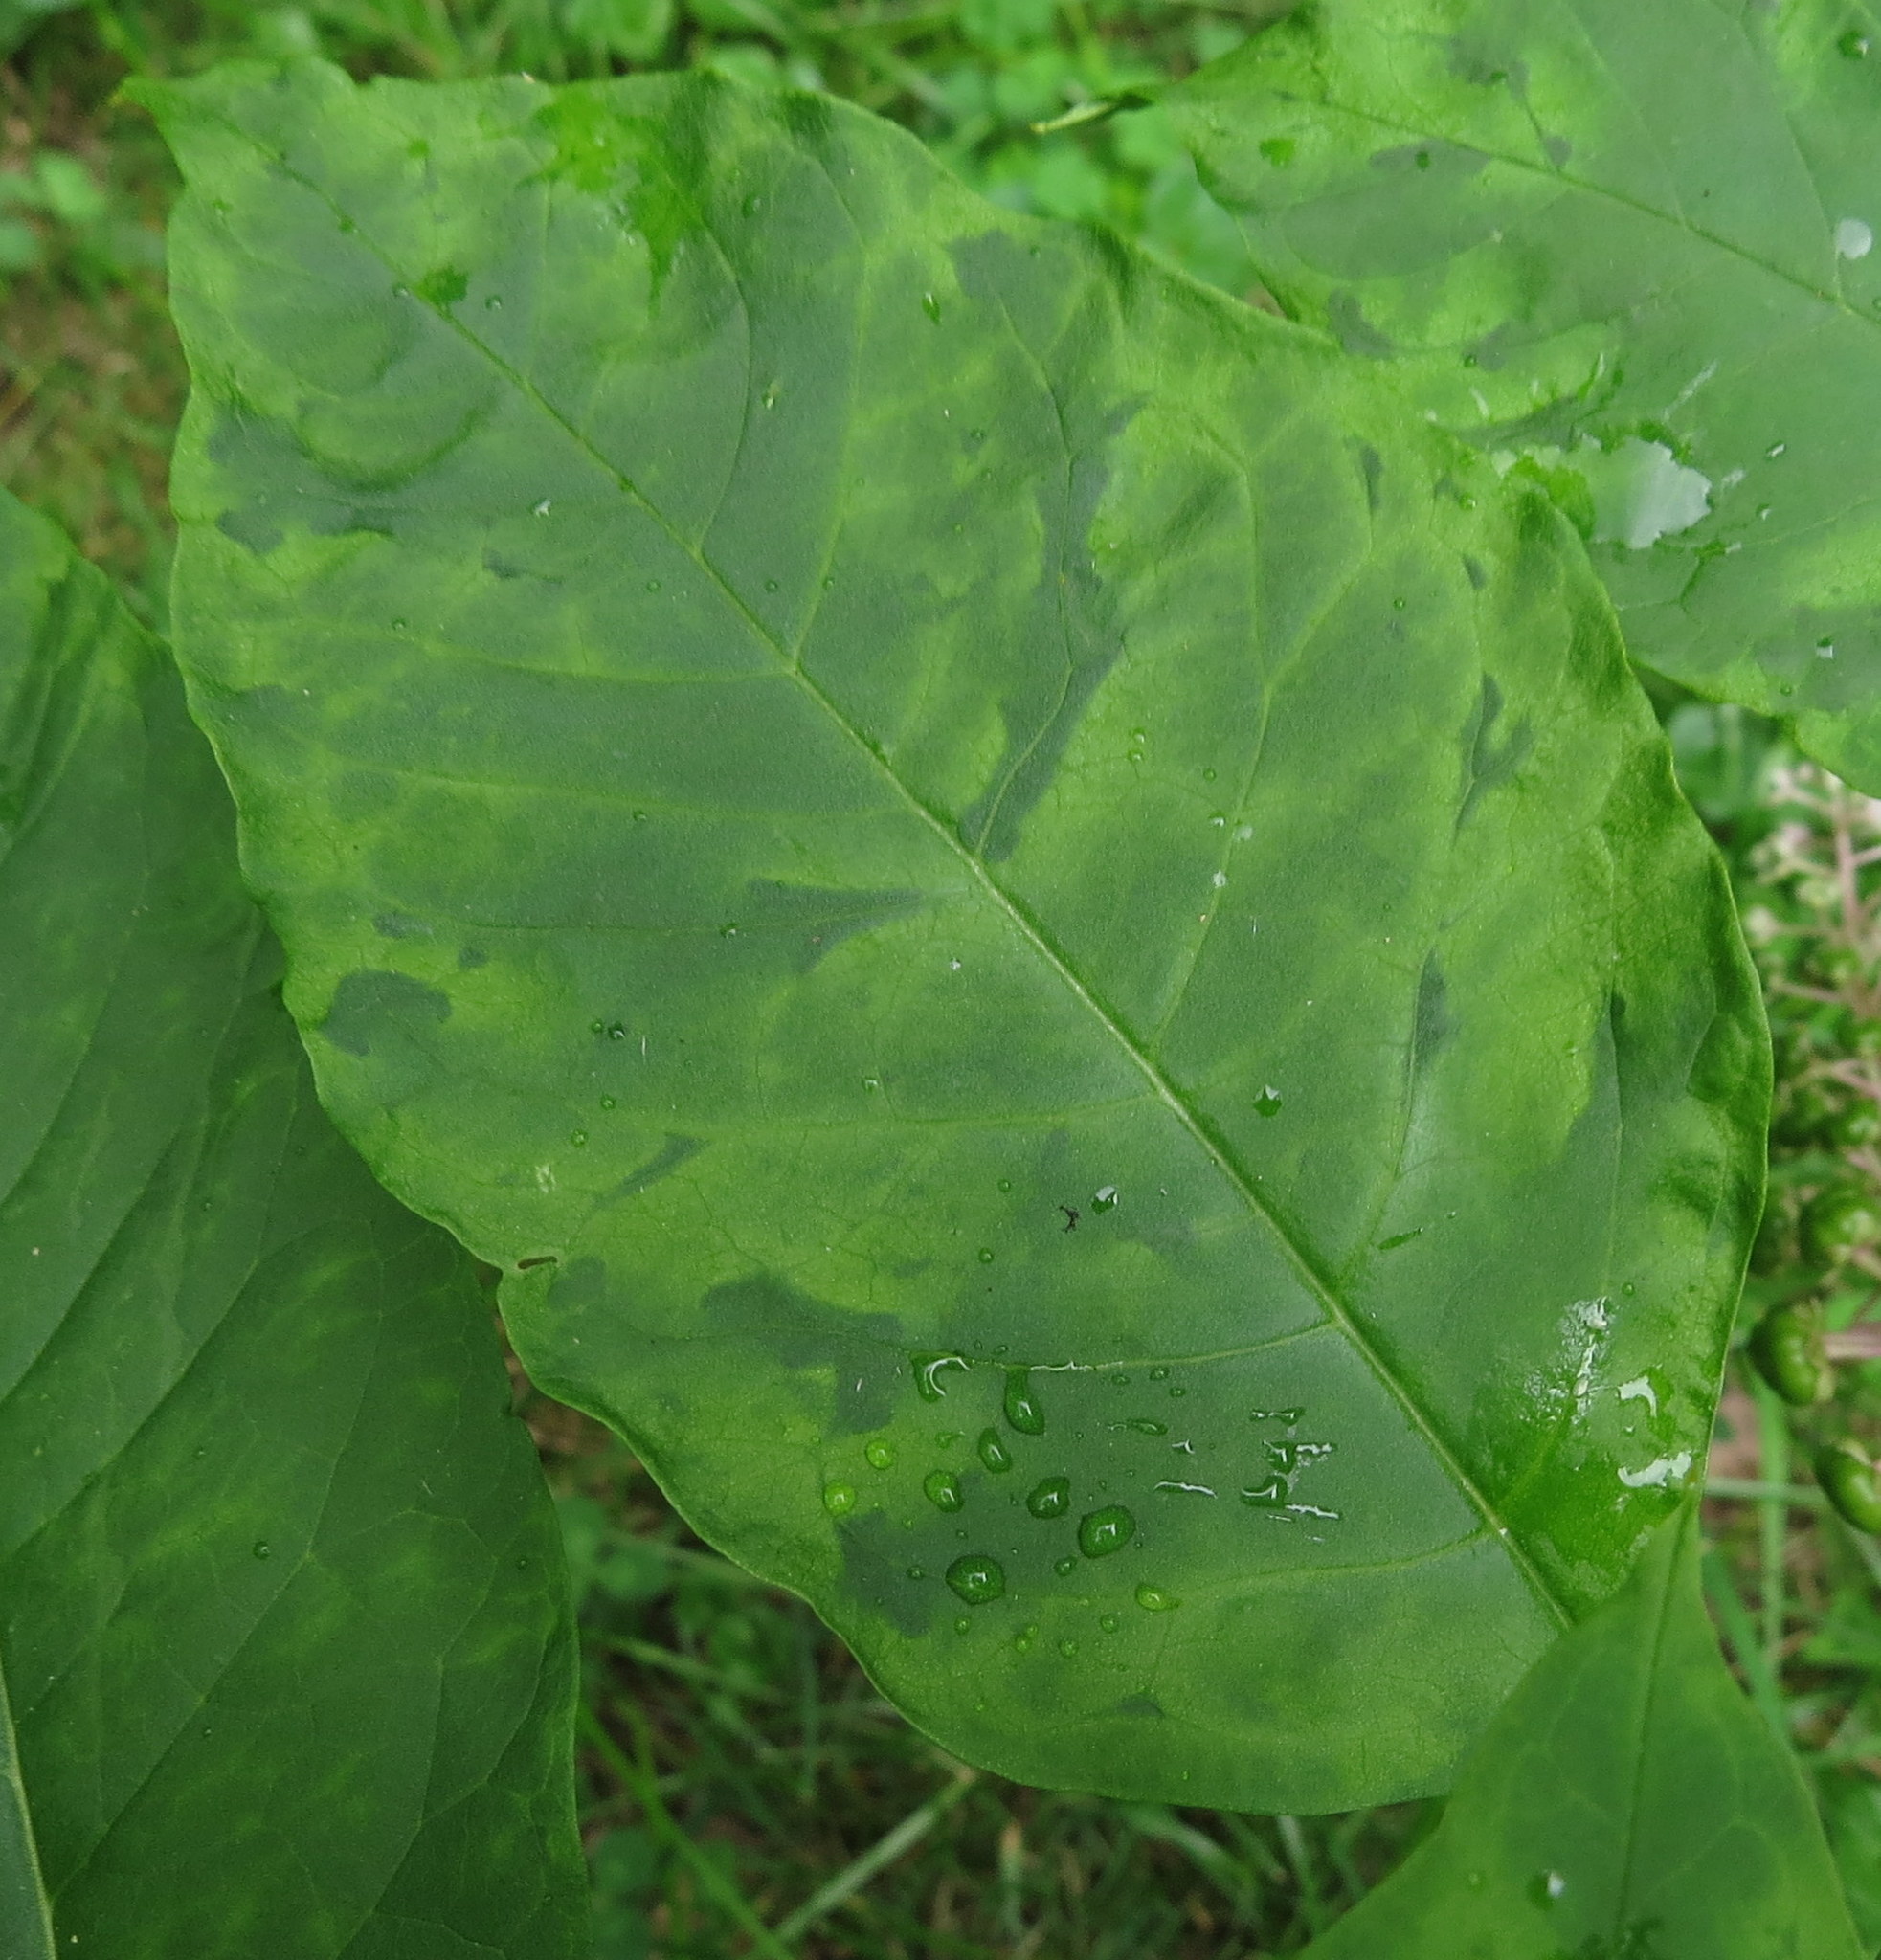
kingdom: Viruses
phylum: Pisuviricota
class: Stelpaviricetes
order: Patatavirales
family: Potyviridae
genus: Potyvirus
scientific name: Potyvirus Pokeweed mosaic virus
